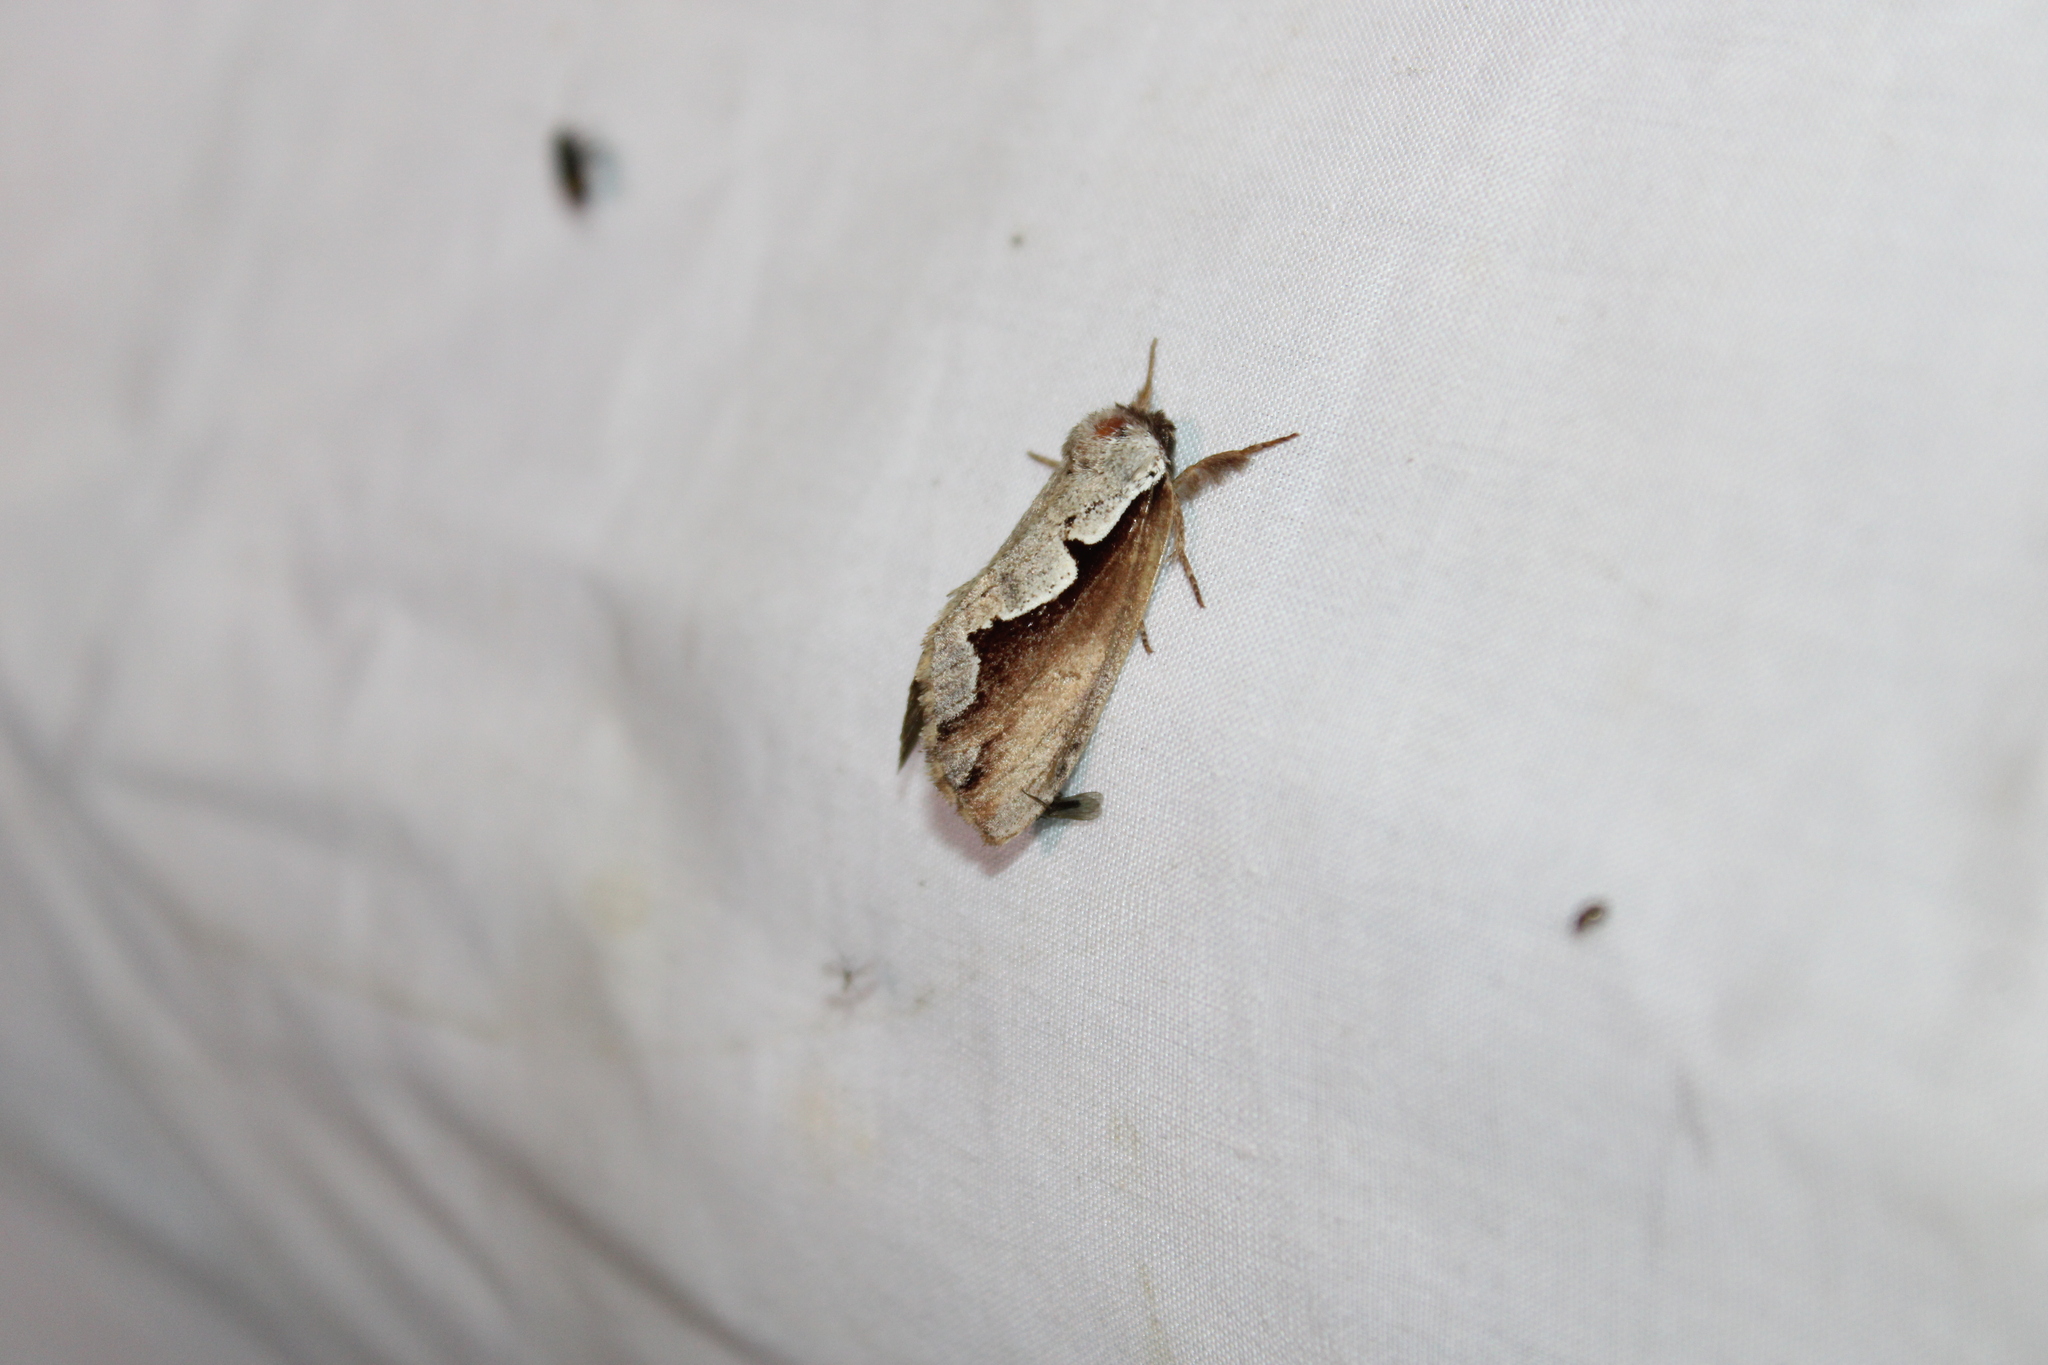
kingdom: Animalia
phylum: Arthropoda
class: Insecta
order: Lepidoptera
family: Notodontidae
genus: Nerice
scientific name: Nerice bidentata
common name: Double-toothed prominent
